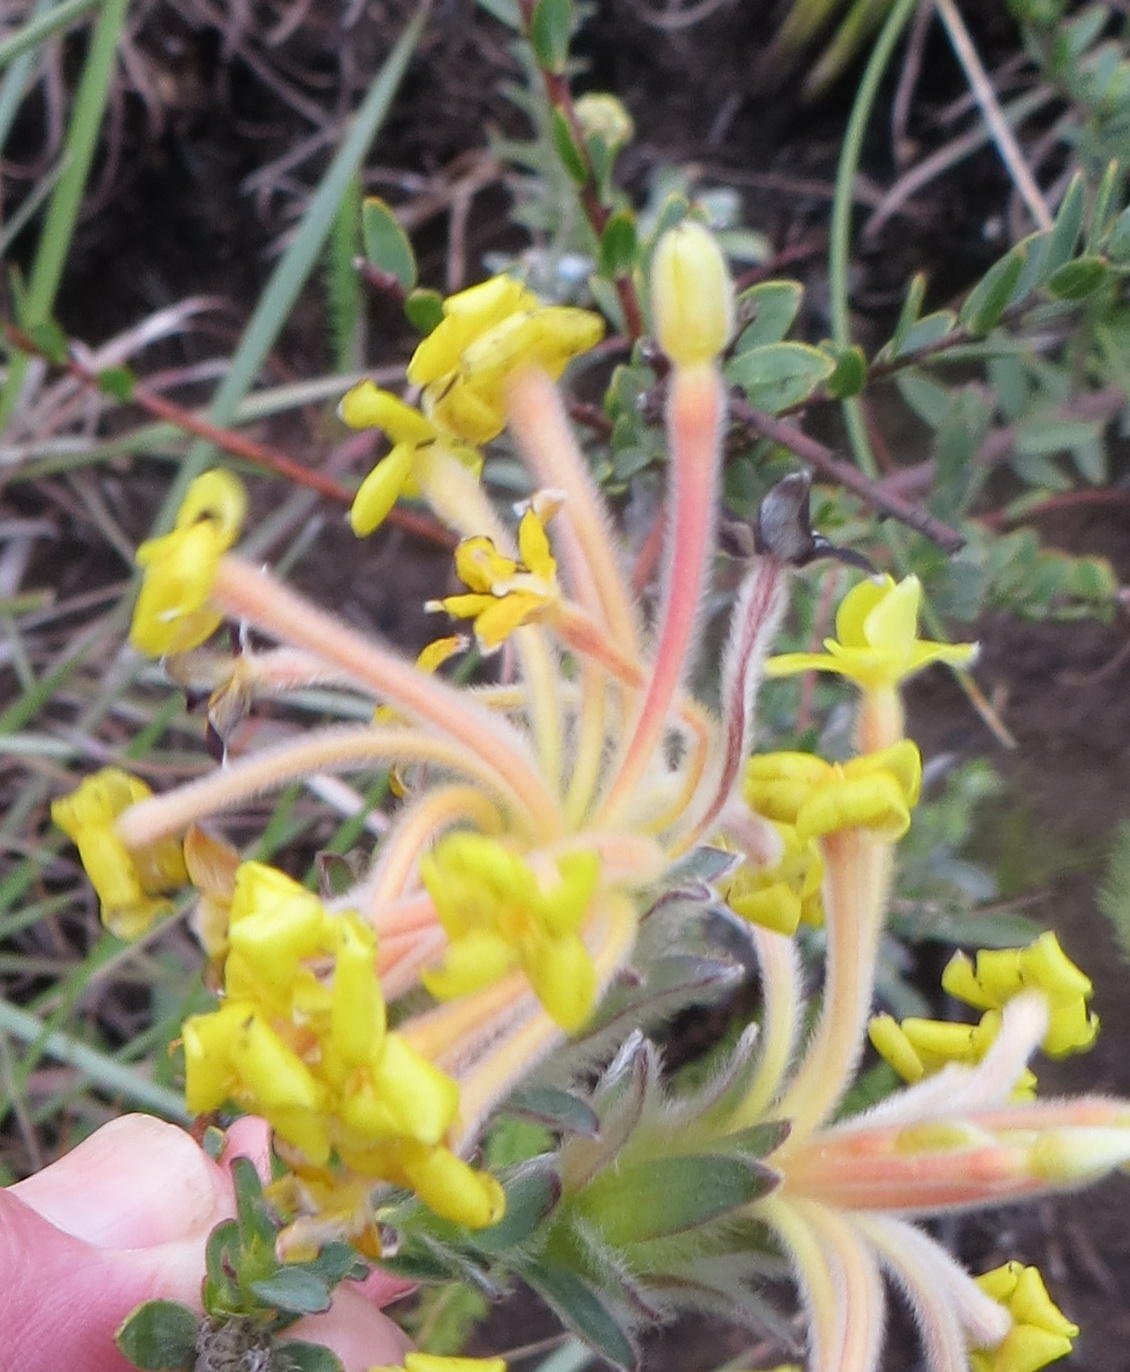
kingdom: Plantae
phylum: Tracheophyta
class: Magnoliopsida
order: Malvales
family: Thymelaeaceae
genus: Gnidia
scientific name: Gnidia anthylloides
